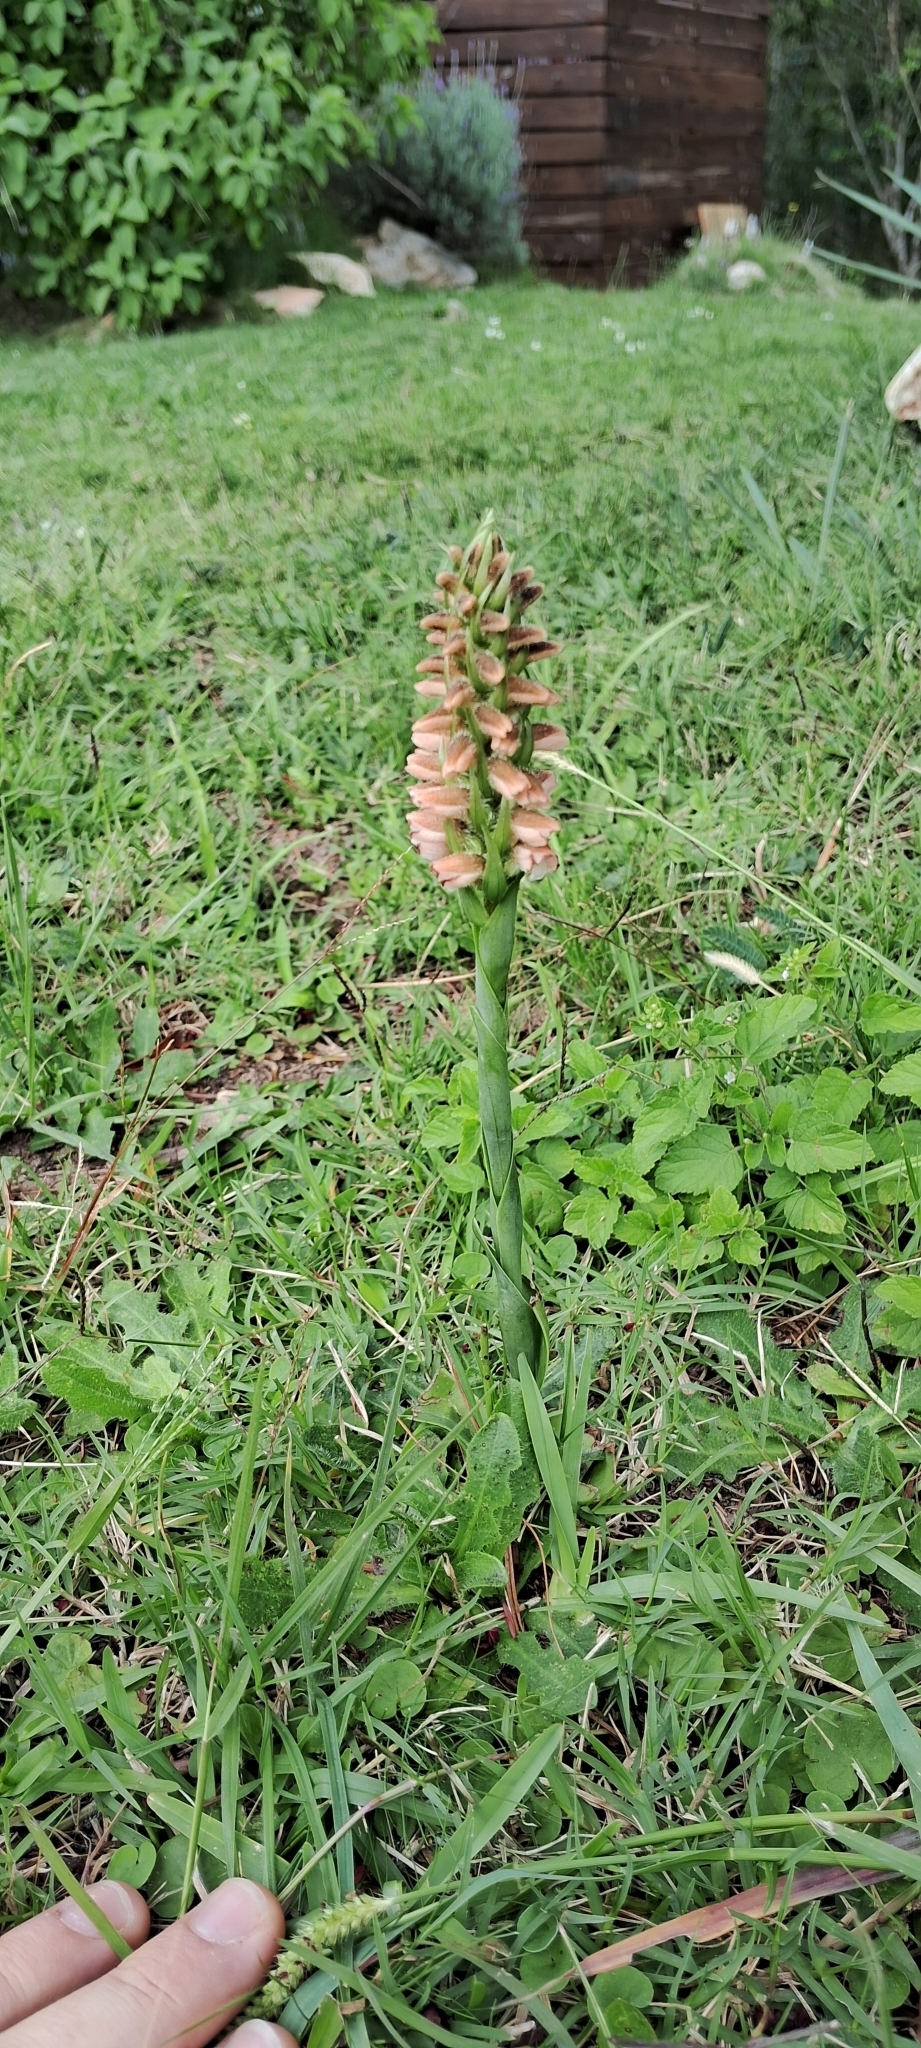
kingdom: Plantae
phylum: Tracheophyta
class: Liliopsida
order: Asparagales
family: Orchidaceae
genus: Skeptrostachys
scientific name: Skeptrostachys balanophorostachya
